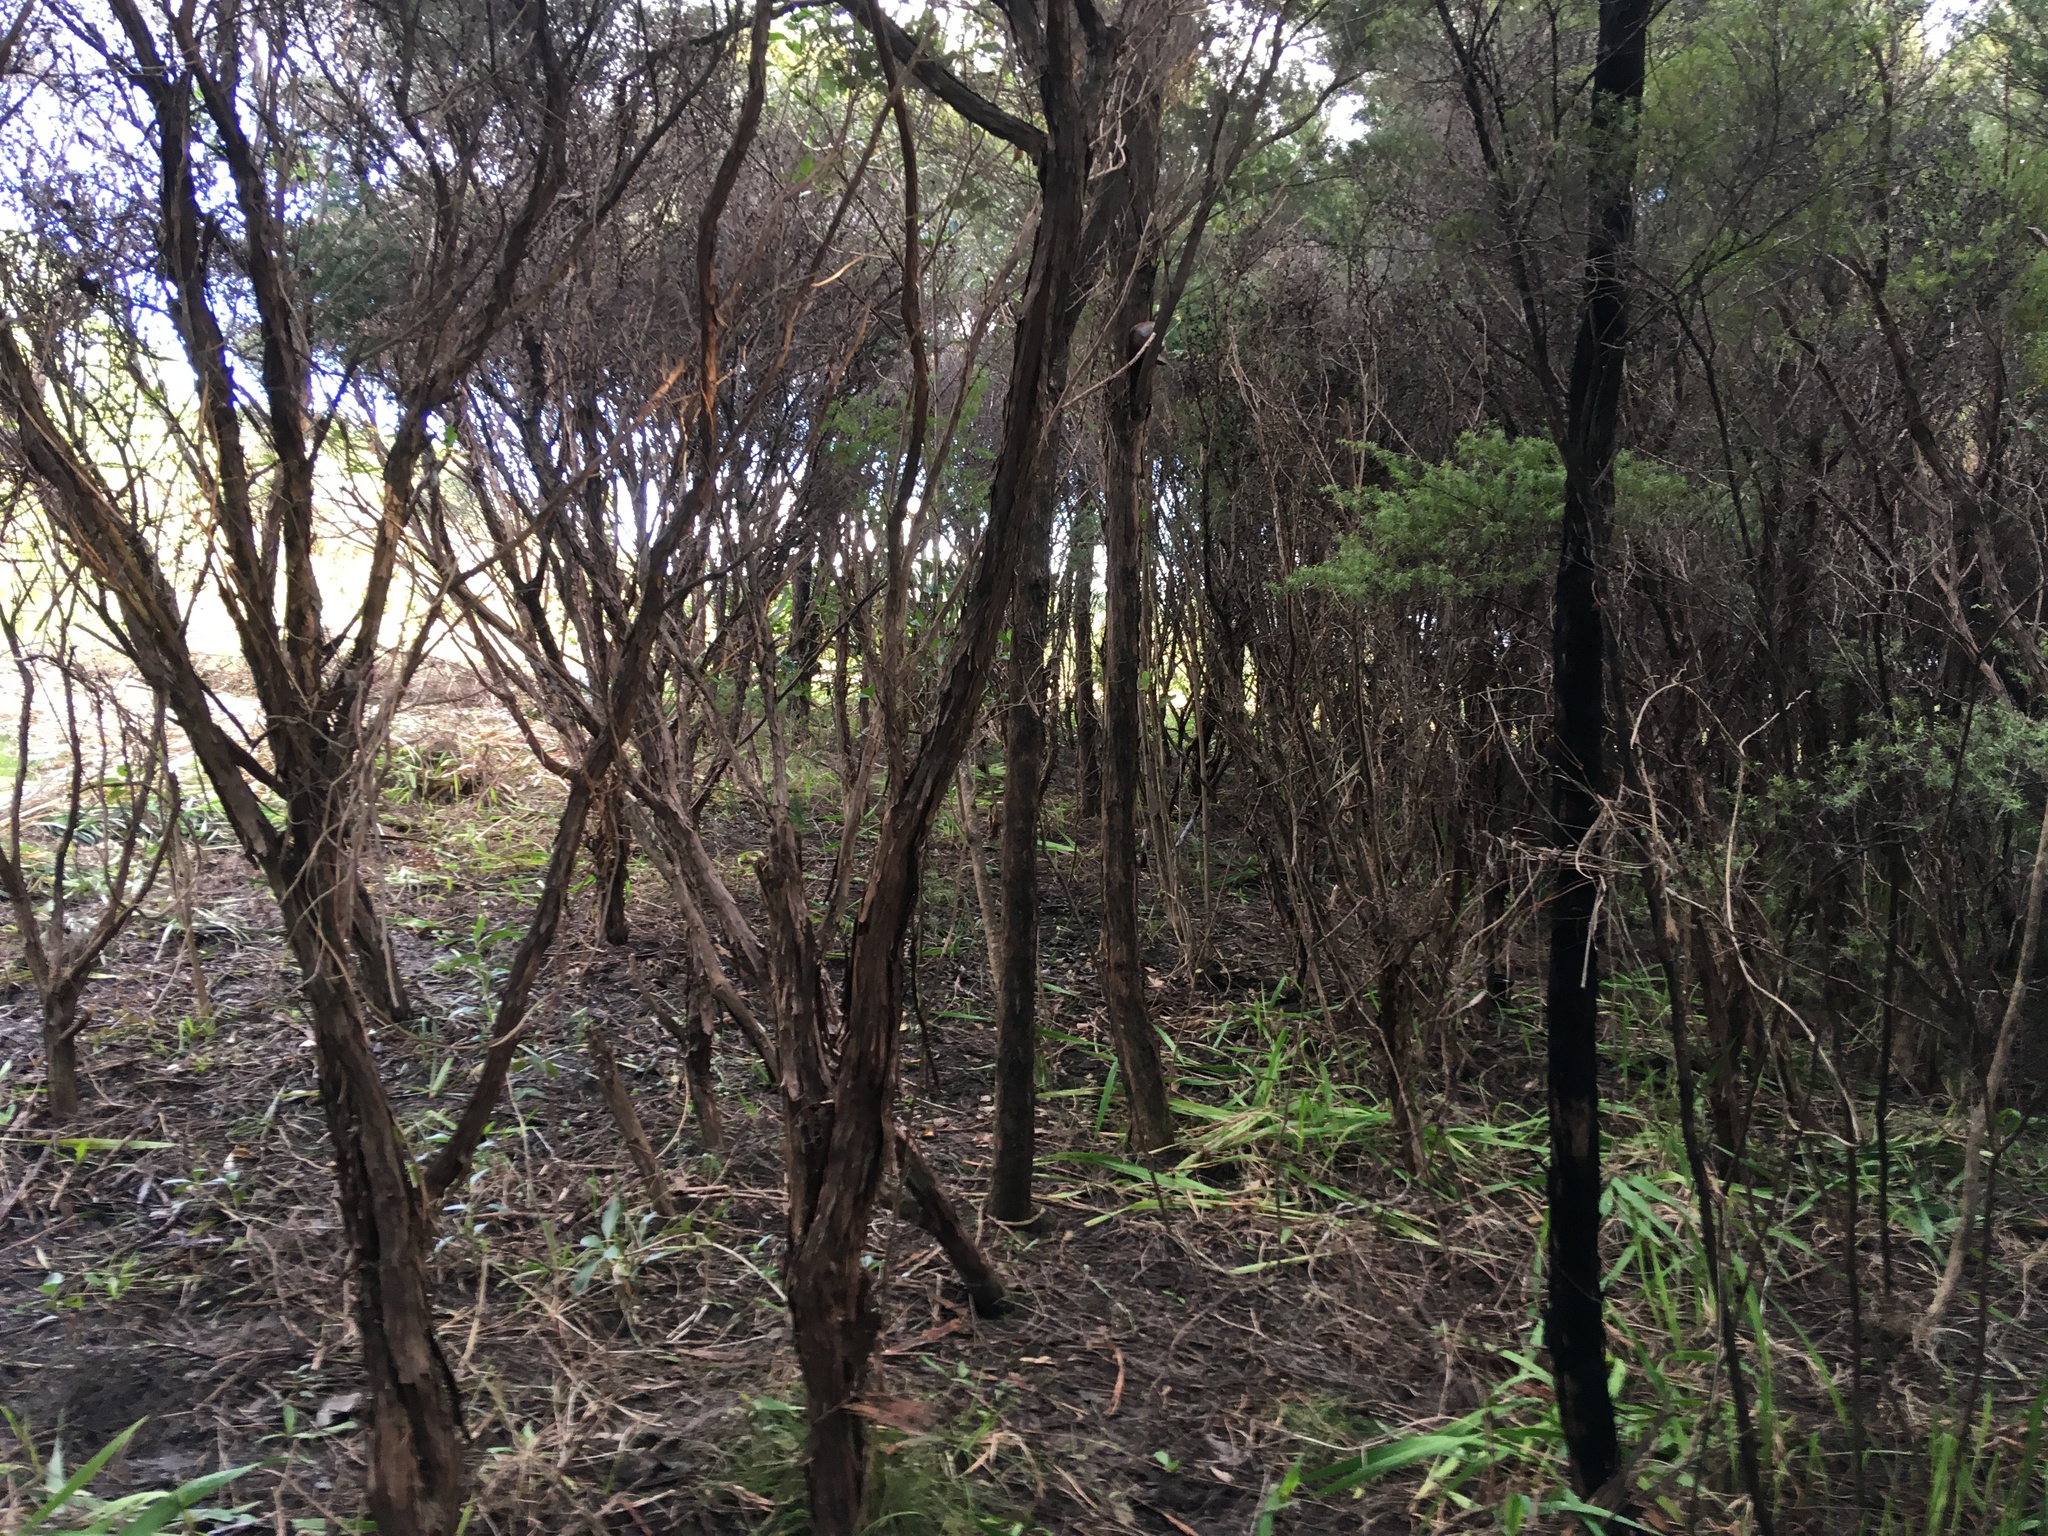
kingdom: Plantae
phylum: Tracheophyta
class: Magnoliopsida
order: Myrtales
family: Myrtaceae
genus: Leptospermum
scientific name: Leptospermum scoparium
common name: Broom tea-tree
